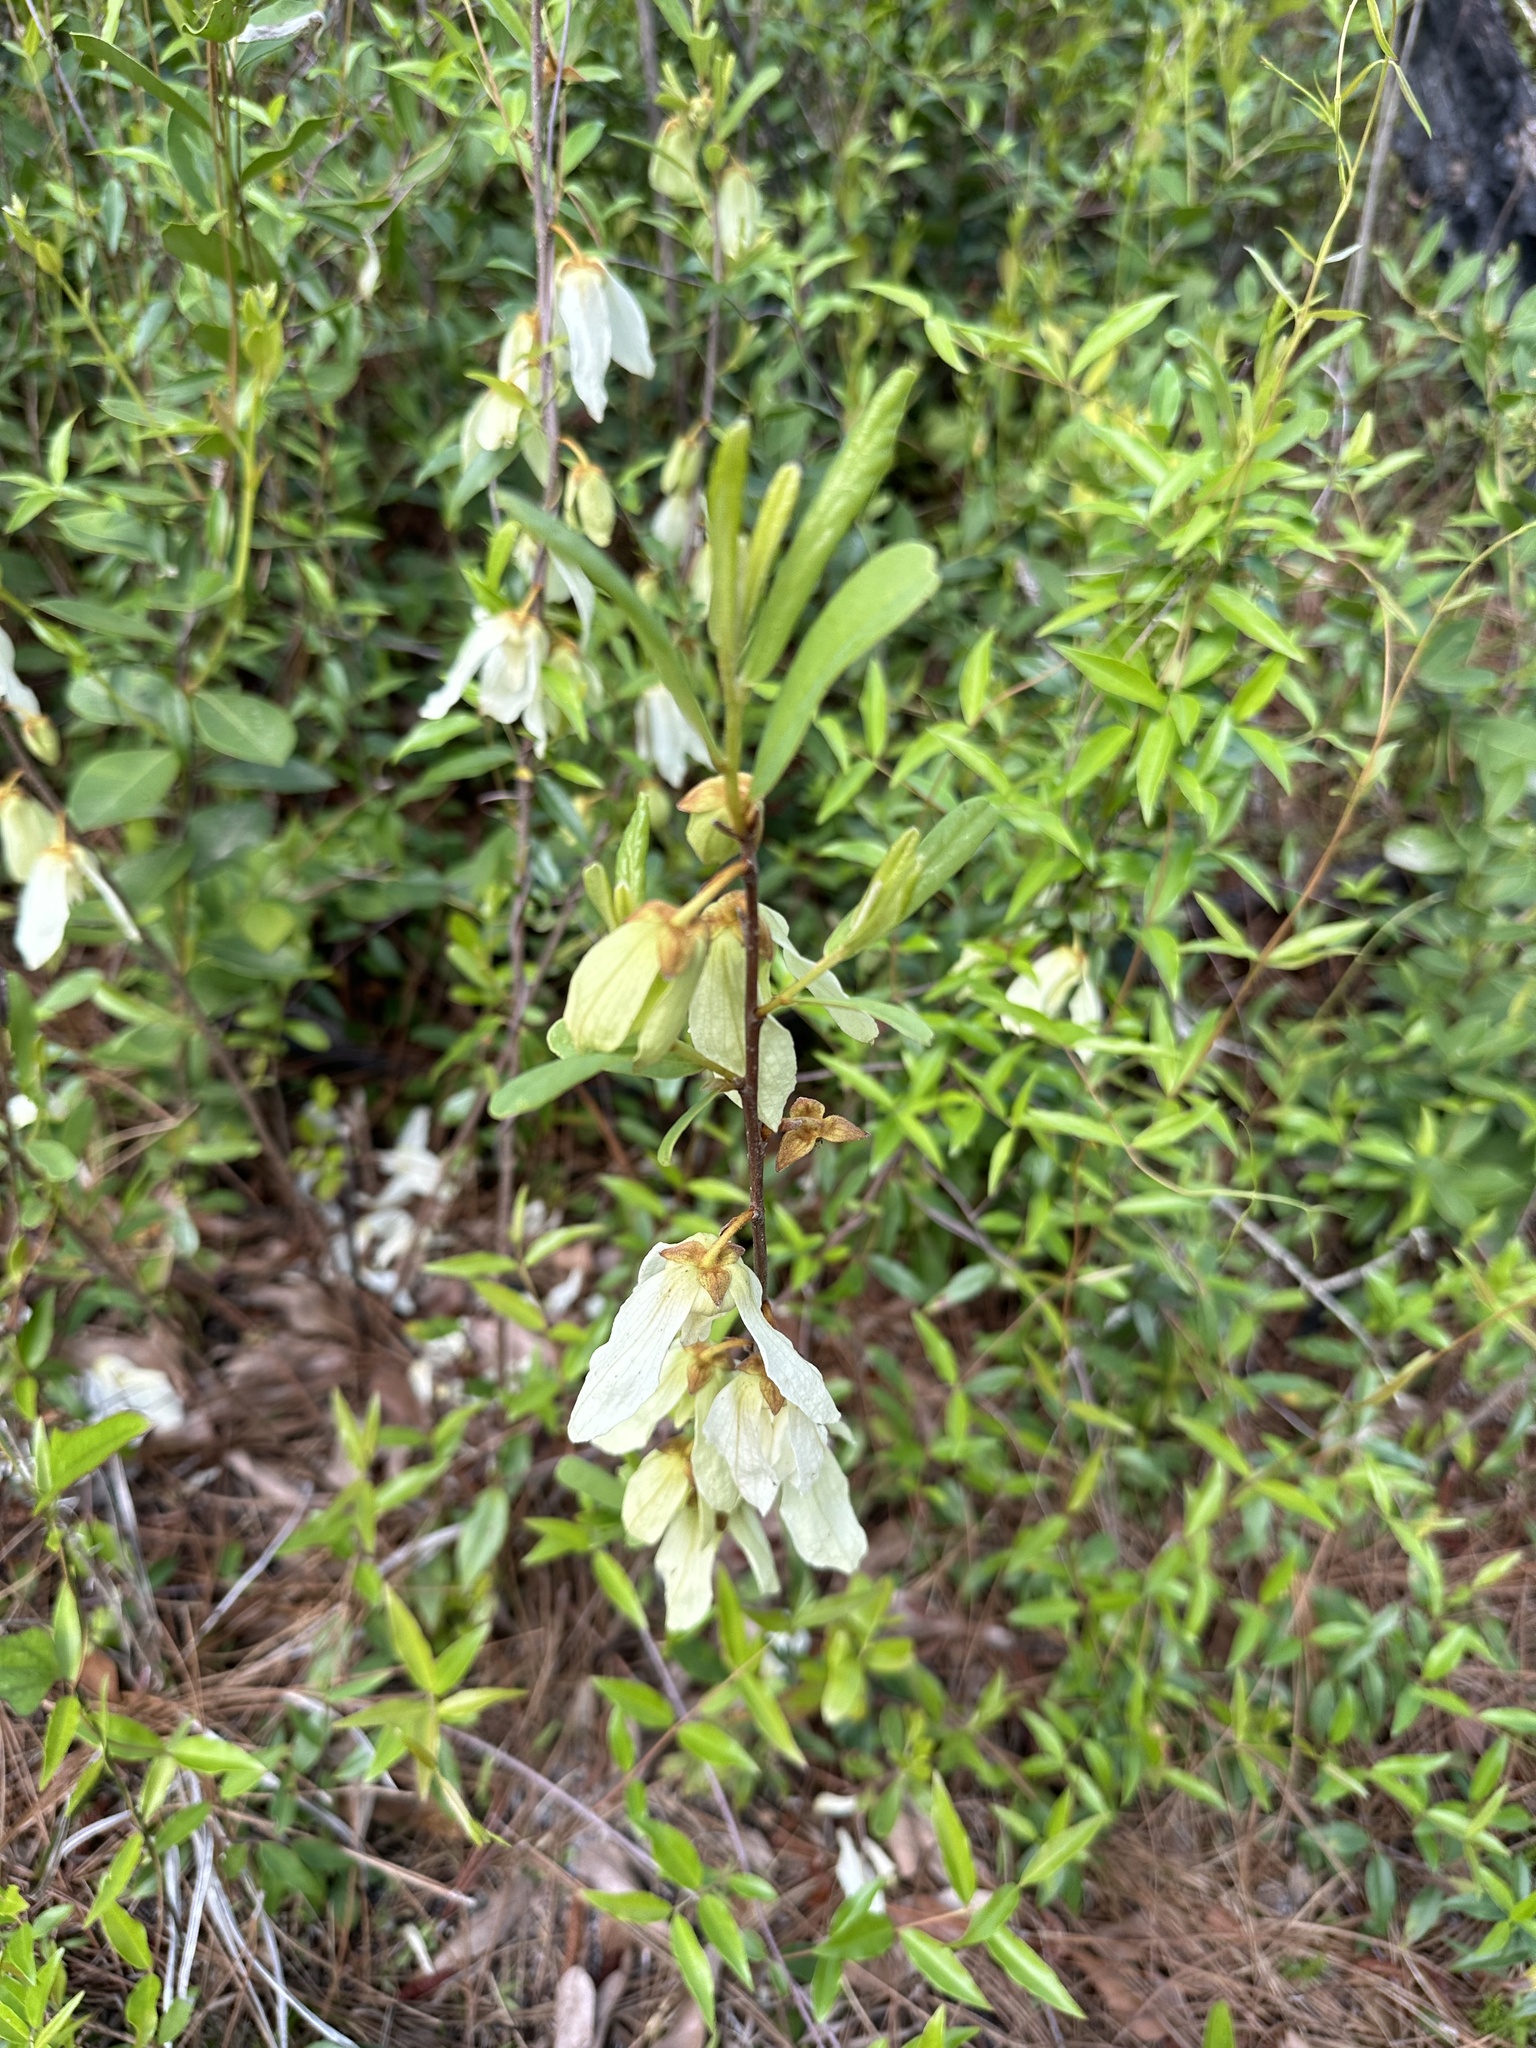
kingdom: Plantae
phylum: Tracheophyta
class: Magnoliopsida
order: Magnoliales
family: Annonaceae
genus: Asimina
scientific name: Asimina speciosa
